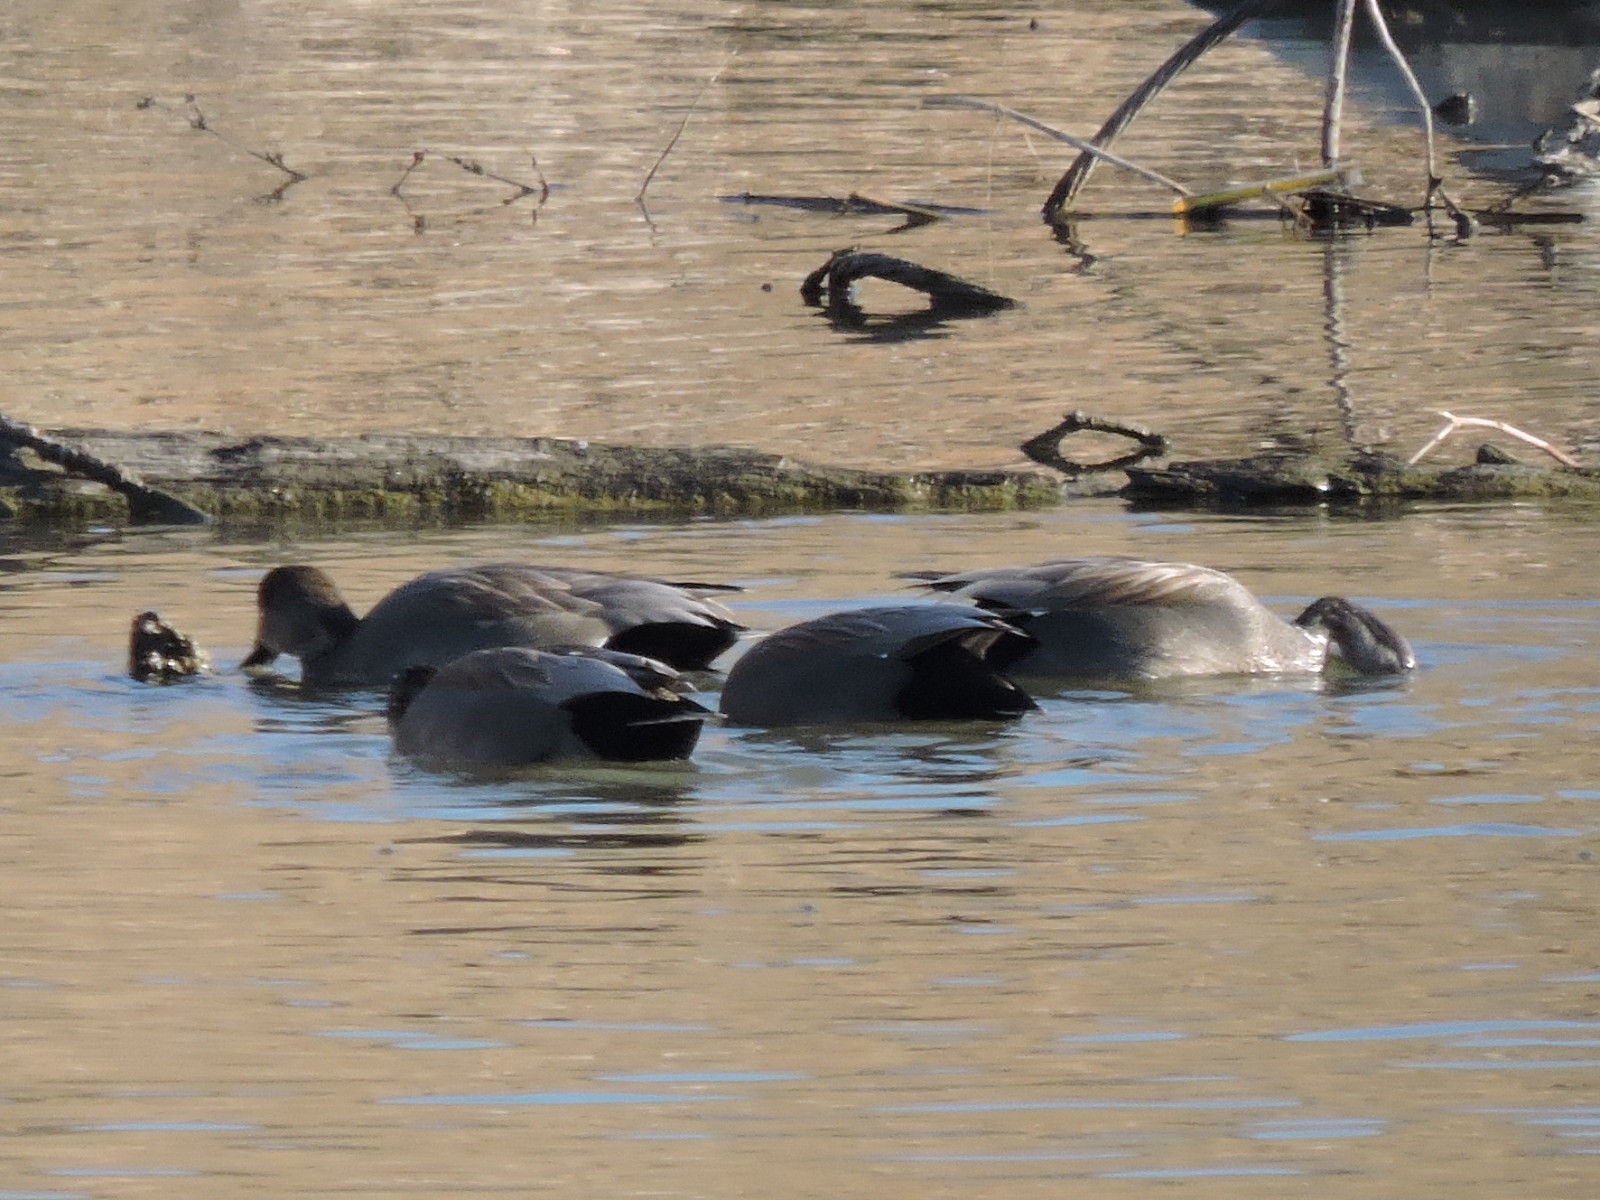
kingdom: Animalia
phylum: Chordata
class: Aves
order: Anseriformes
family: Anatidae
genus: Mareca
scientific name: Mareca strepera
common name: Gadwall
